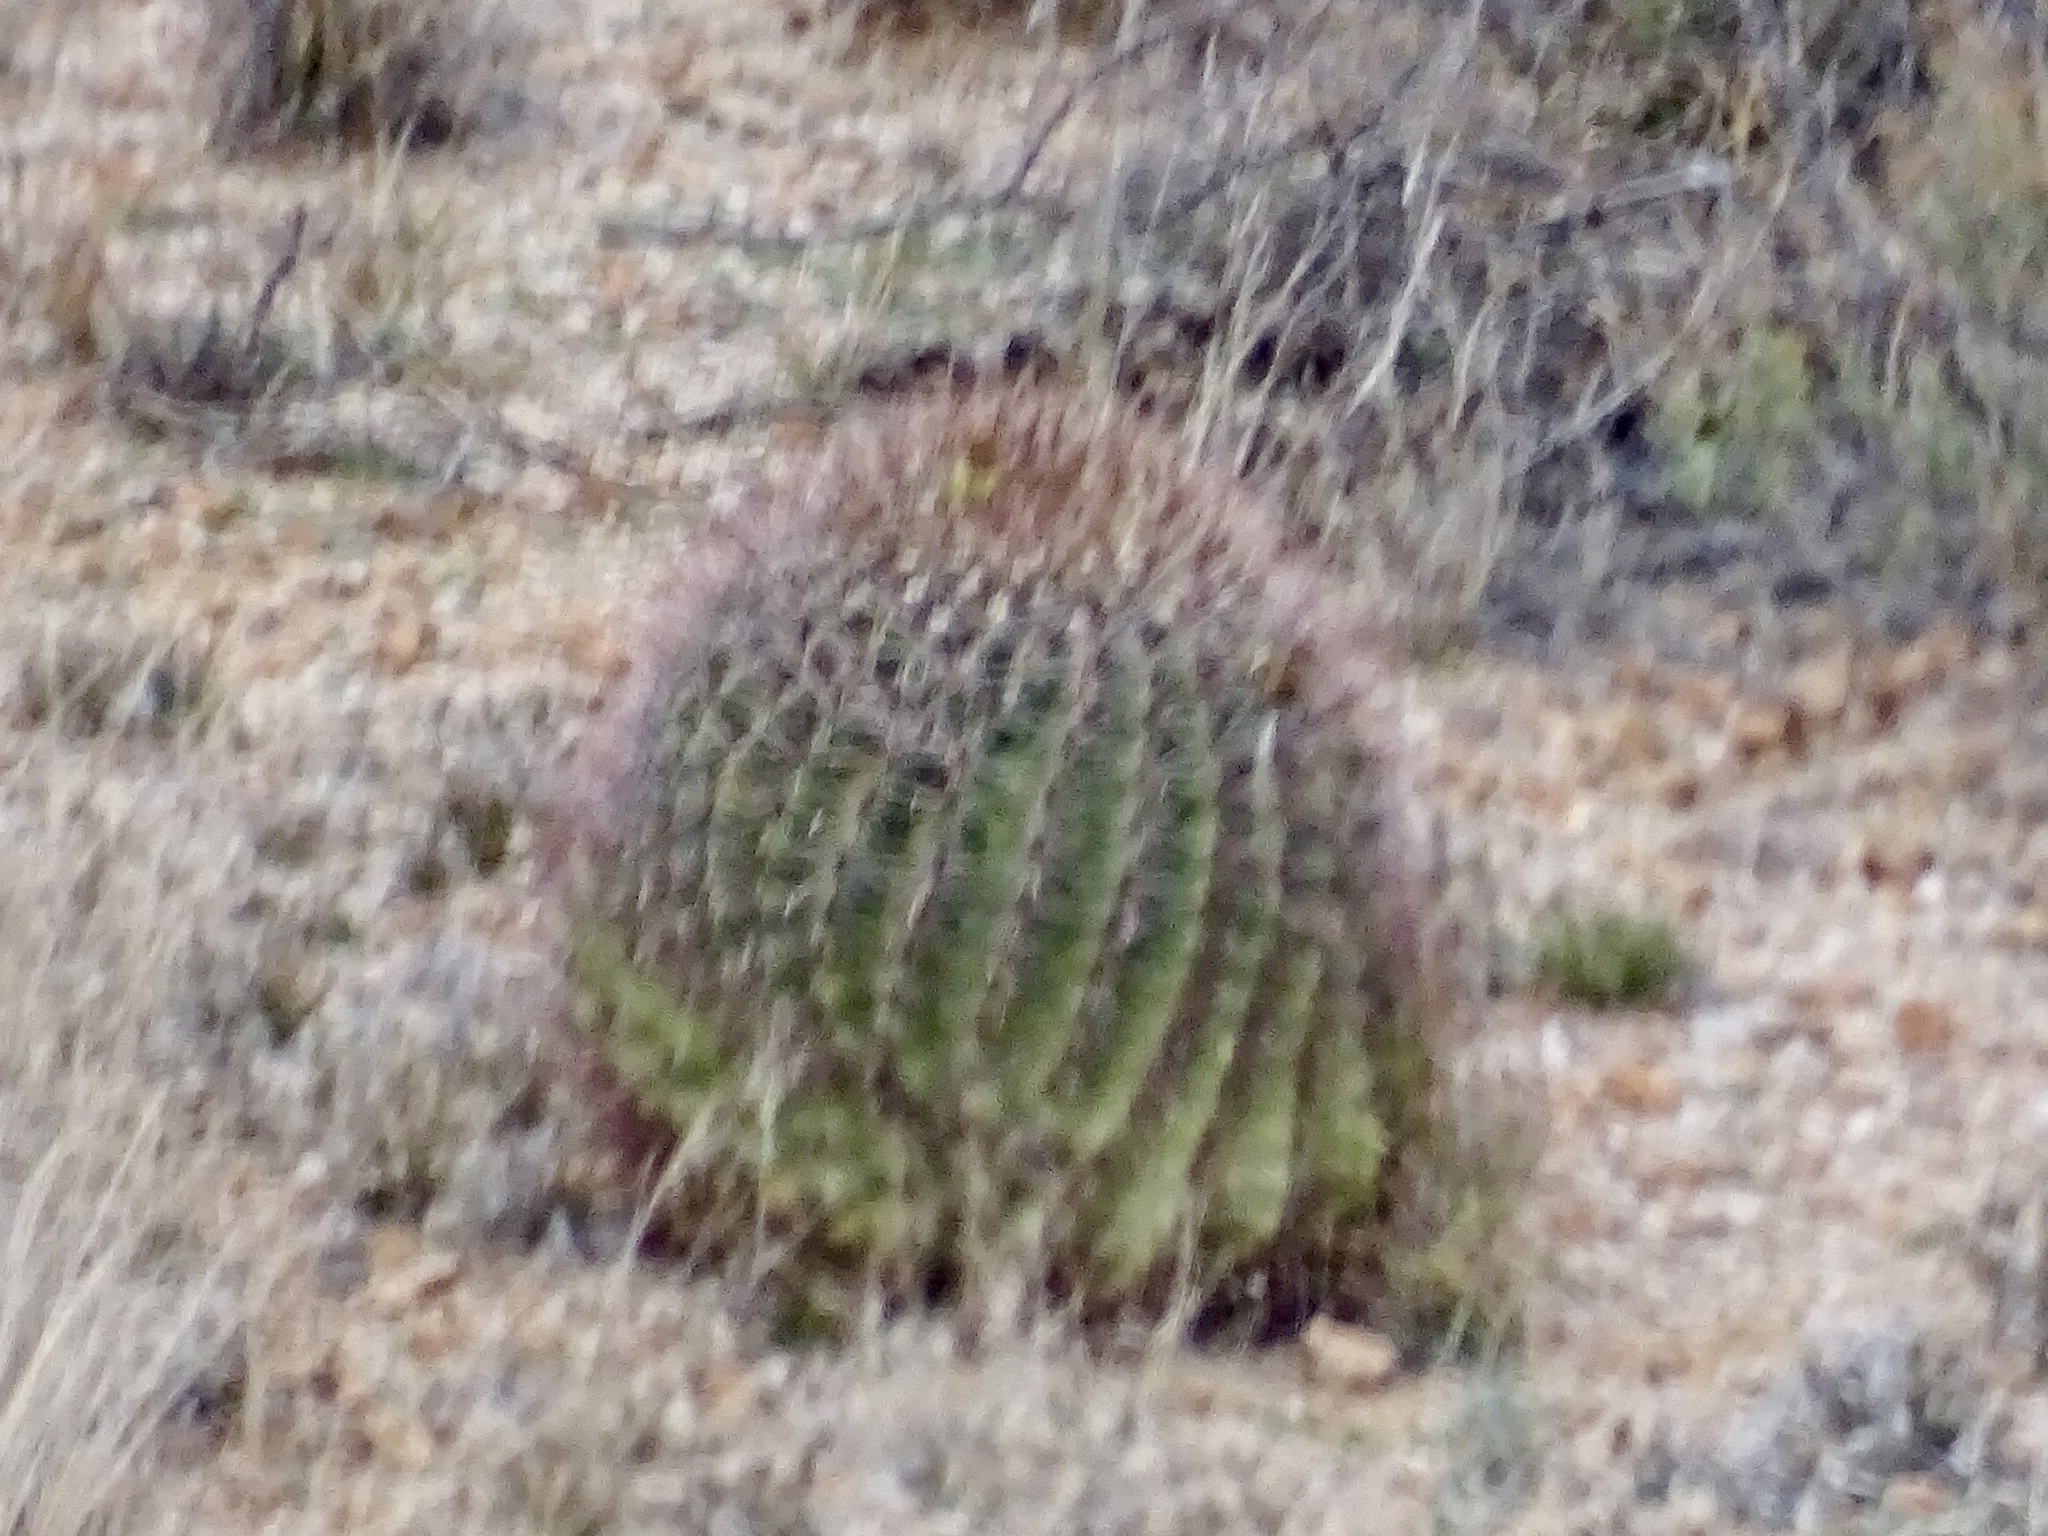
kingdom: Plantae
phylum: Tracheophyta
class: Magnoliopsida
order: Caryophyllales
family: Cactaceae
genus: Ferocactus
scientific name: Ferocactus wislizeni
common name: Candy barrel cactus
